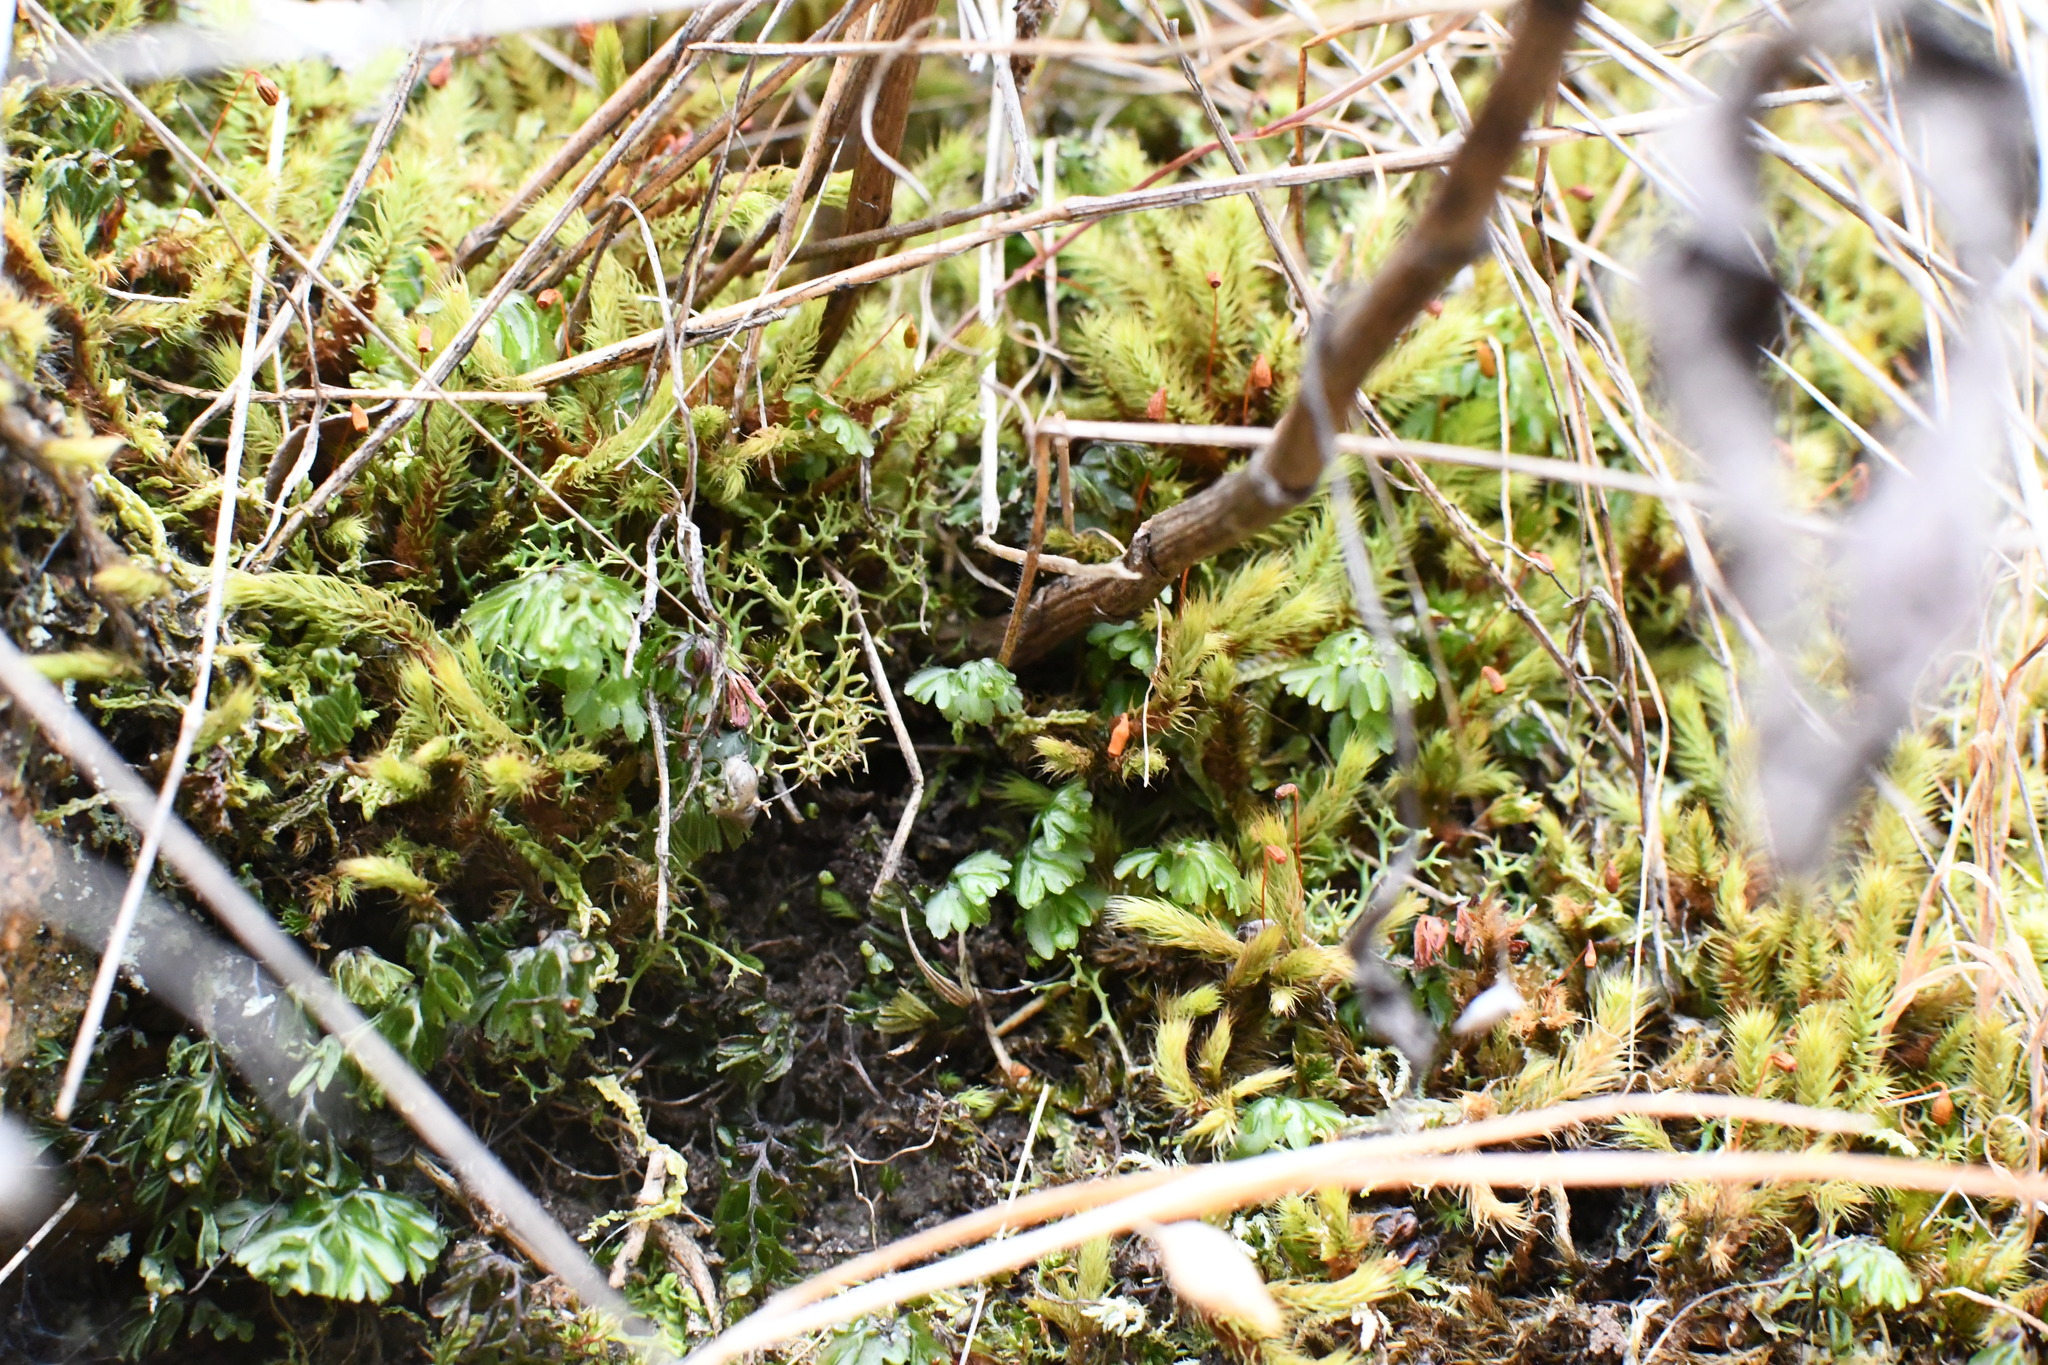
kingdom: Plantae
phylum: Tracheophyta
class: Polypodiopsida
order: Hymenophyllales
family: Hymenophyllaceae
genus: Hymenophyllum
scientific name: Hymenophyllum cupressiforme
